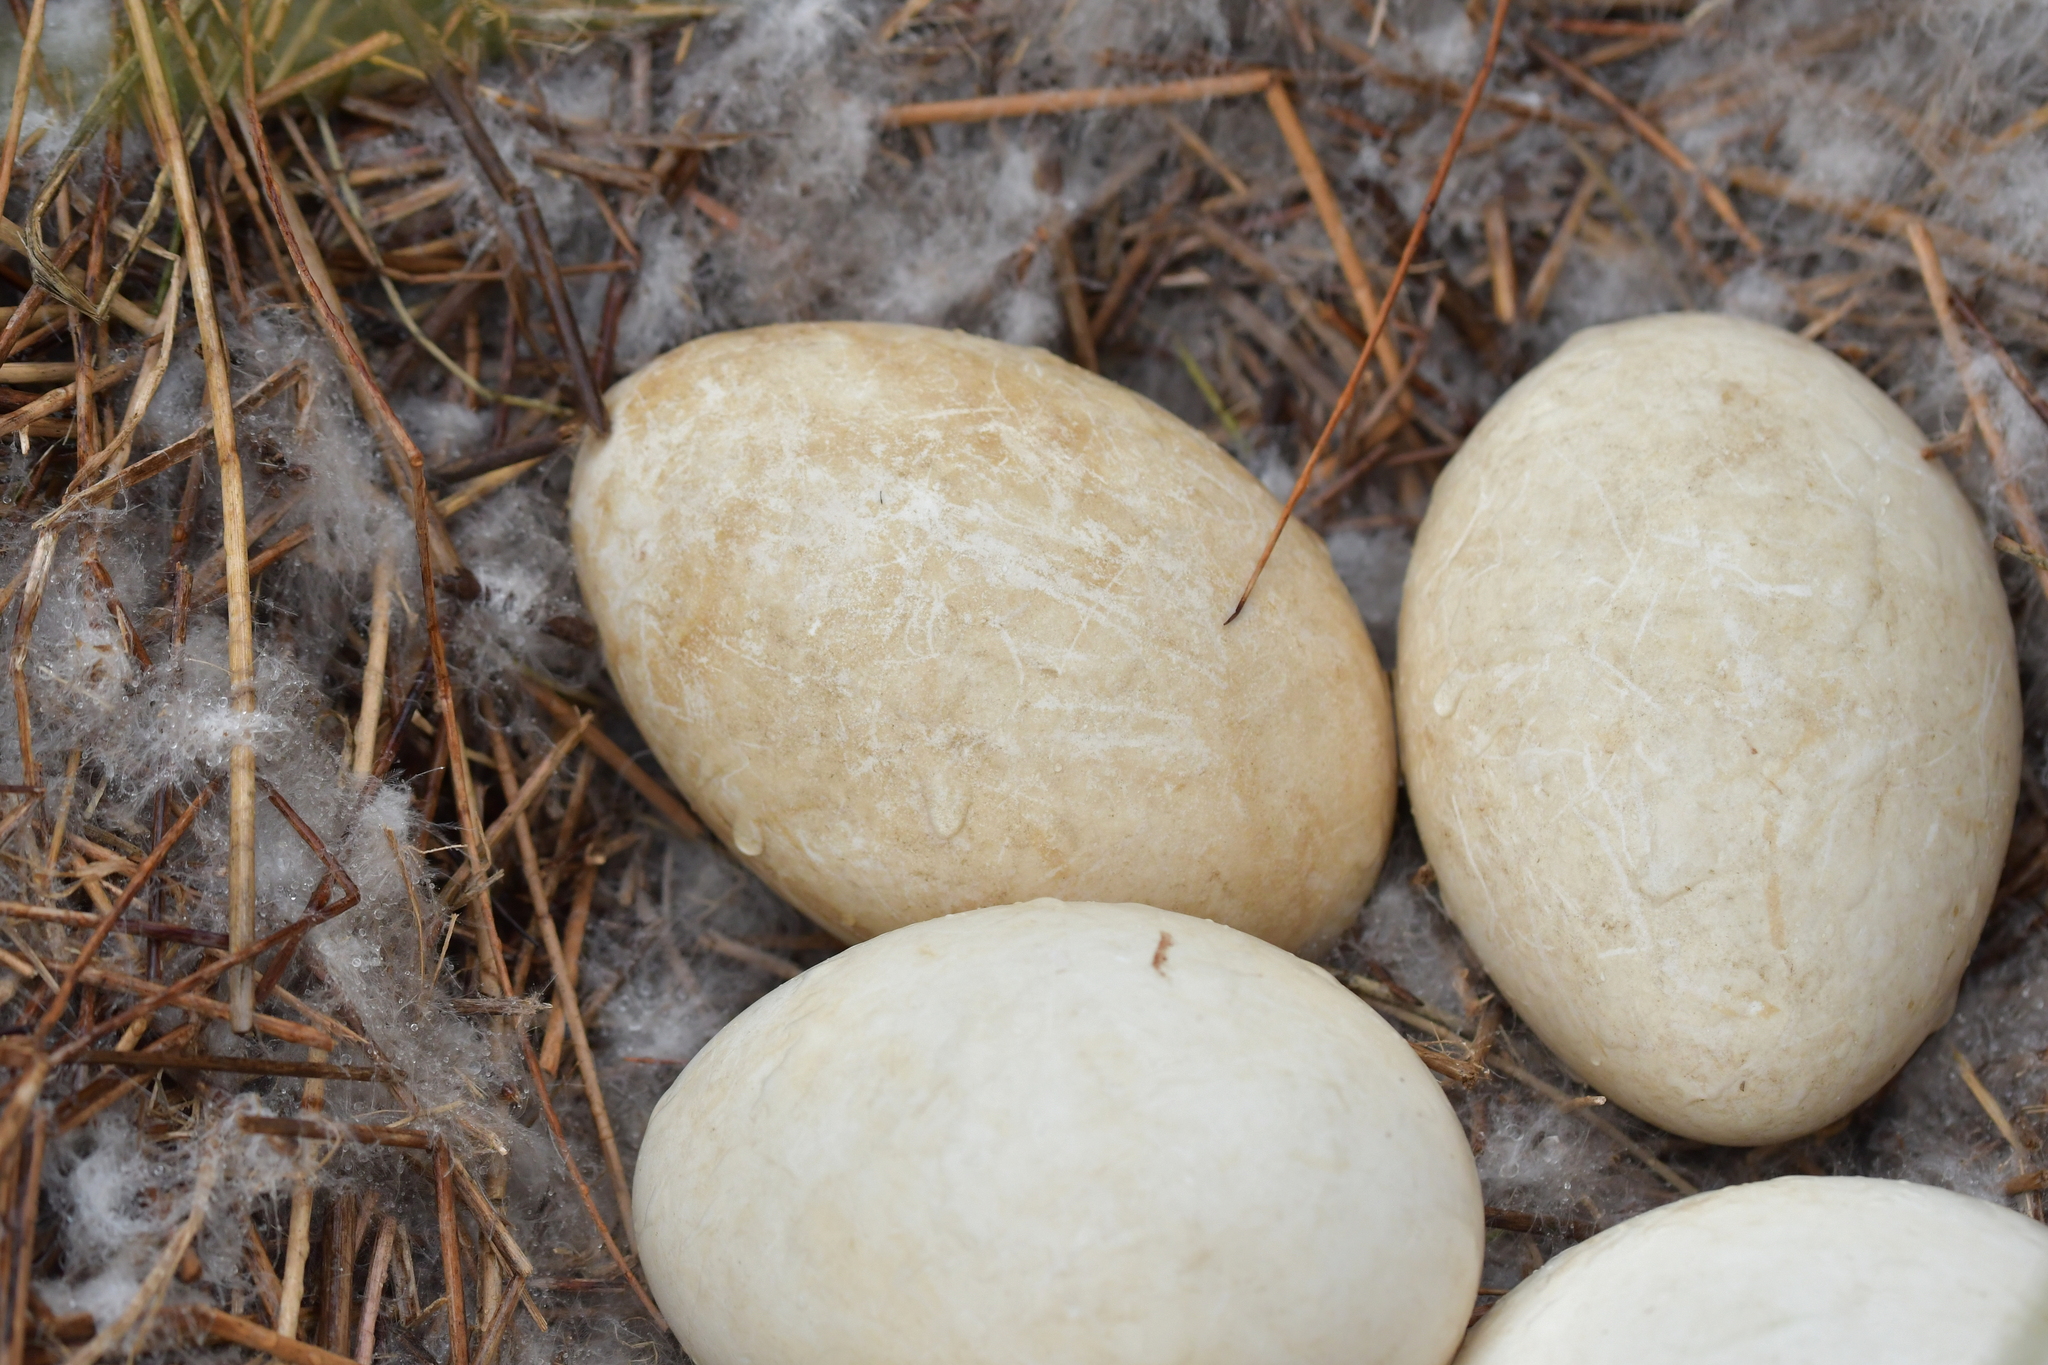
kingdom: Animalia
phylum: Chordata
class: Aves
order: Anseriformes
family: Anatidae
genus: Branta
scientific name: Branta canadensis
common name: Canada goose
